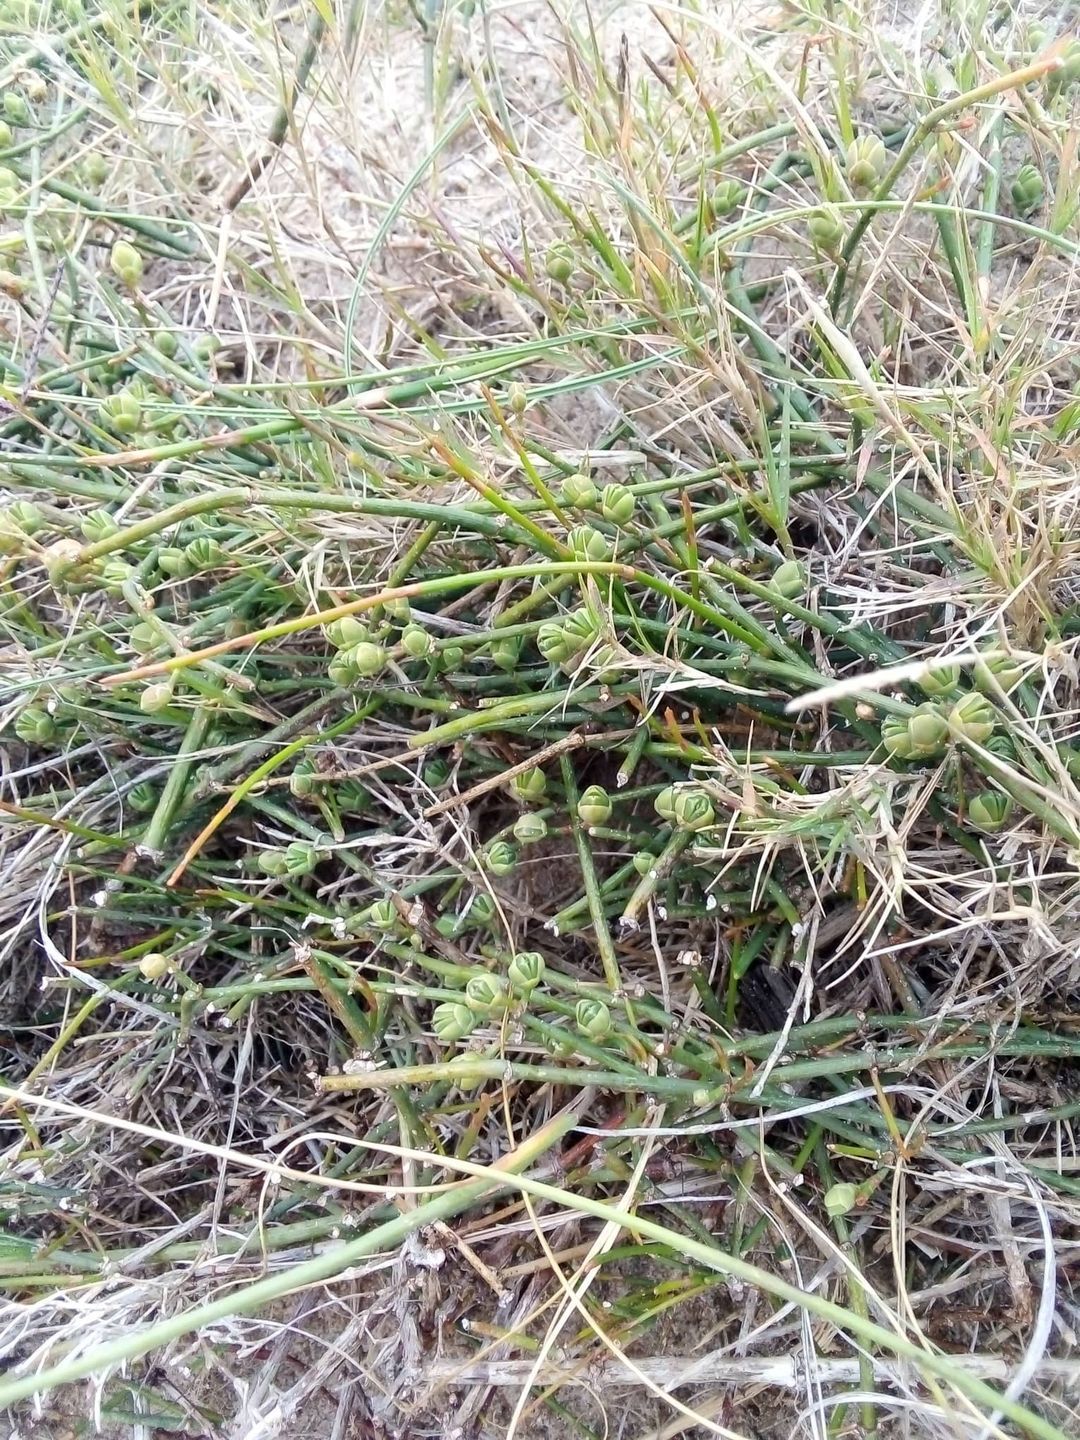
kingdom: Plantae
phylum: Tracheophyta
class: Gnetopsida
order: Ephedrales
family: Ephedraceae
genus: Ephedra
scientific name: Ephedra tweedieana
